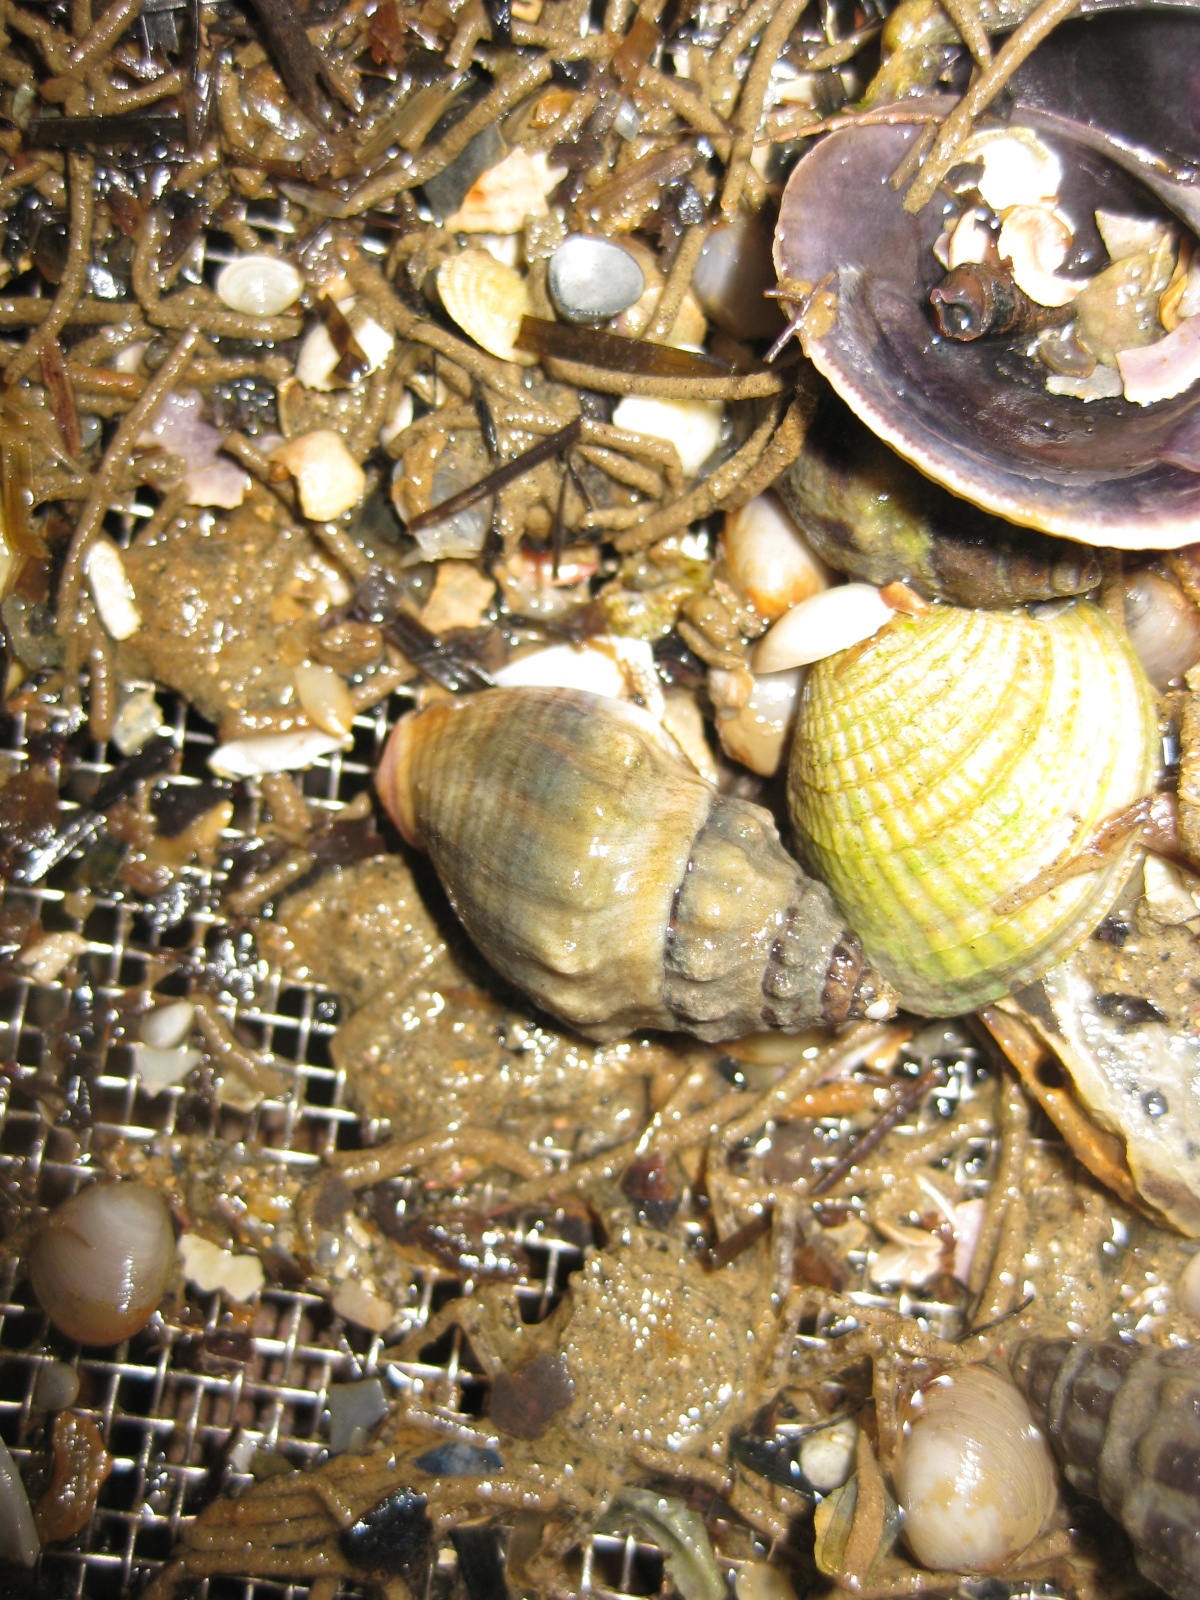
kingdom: Animalia
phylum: Mollusca
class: Gastropoda
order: Neogastropoda
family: Cominellidae
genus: Cominella
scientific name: Cominella glandiformis
